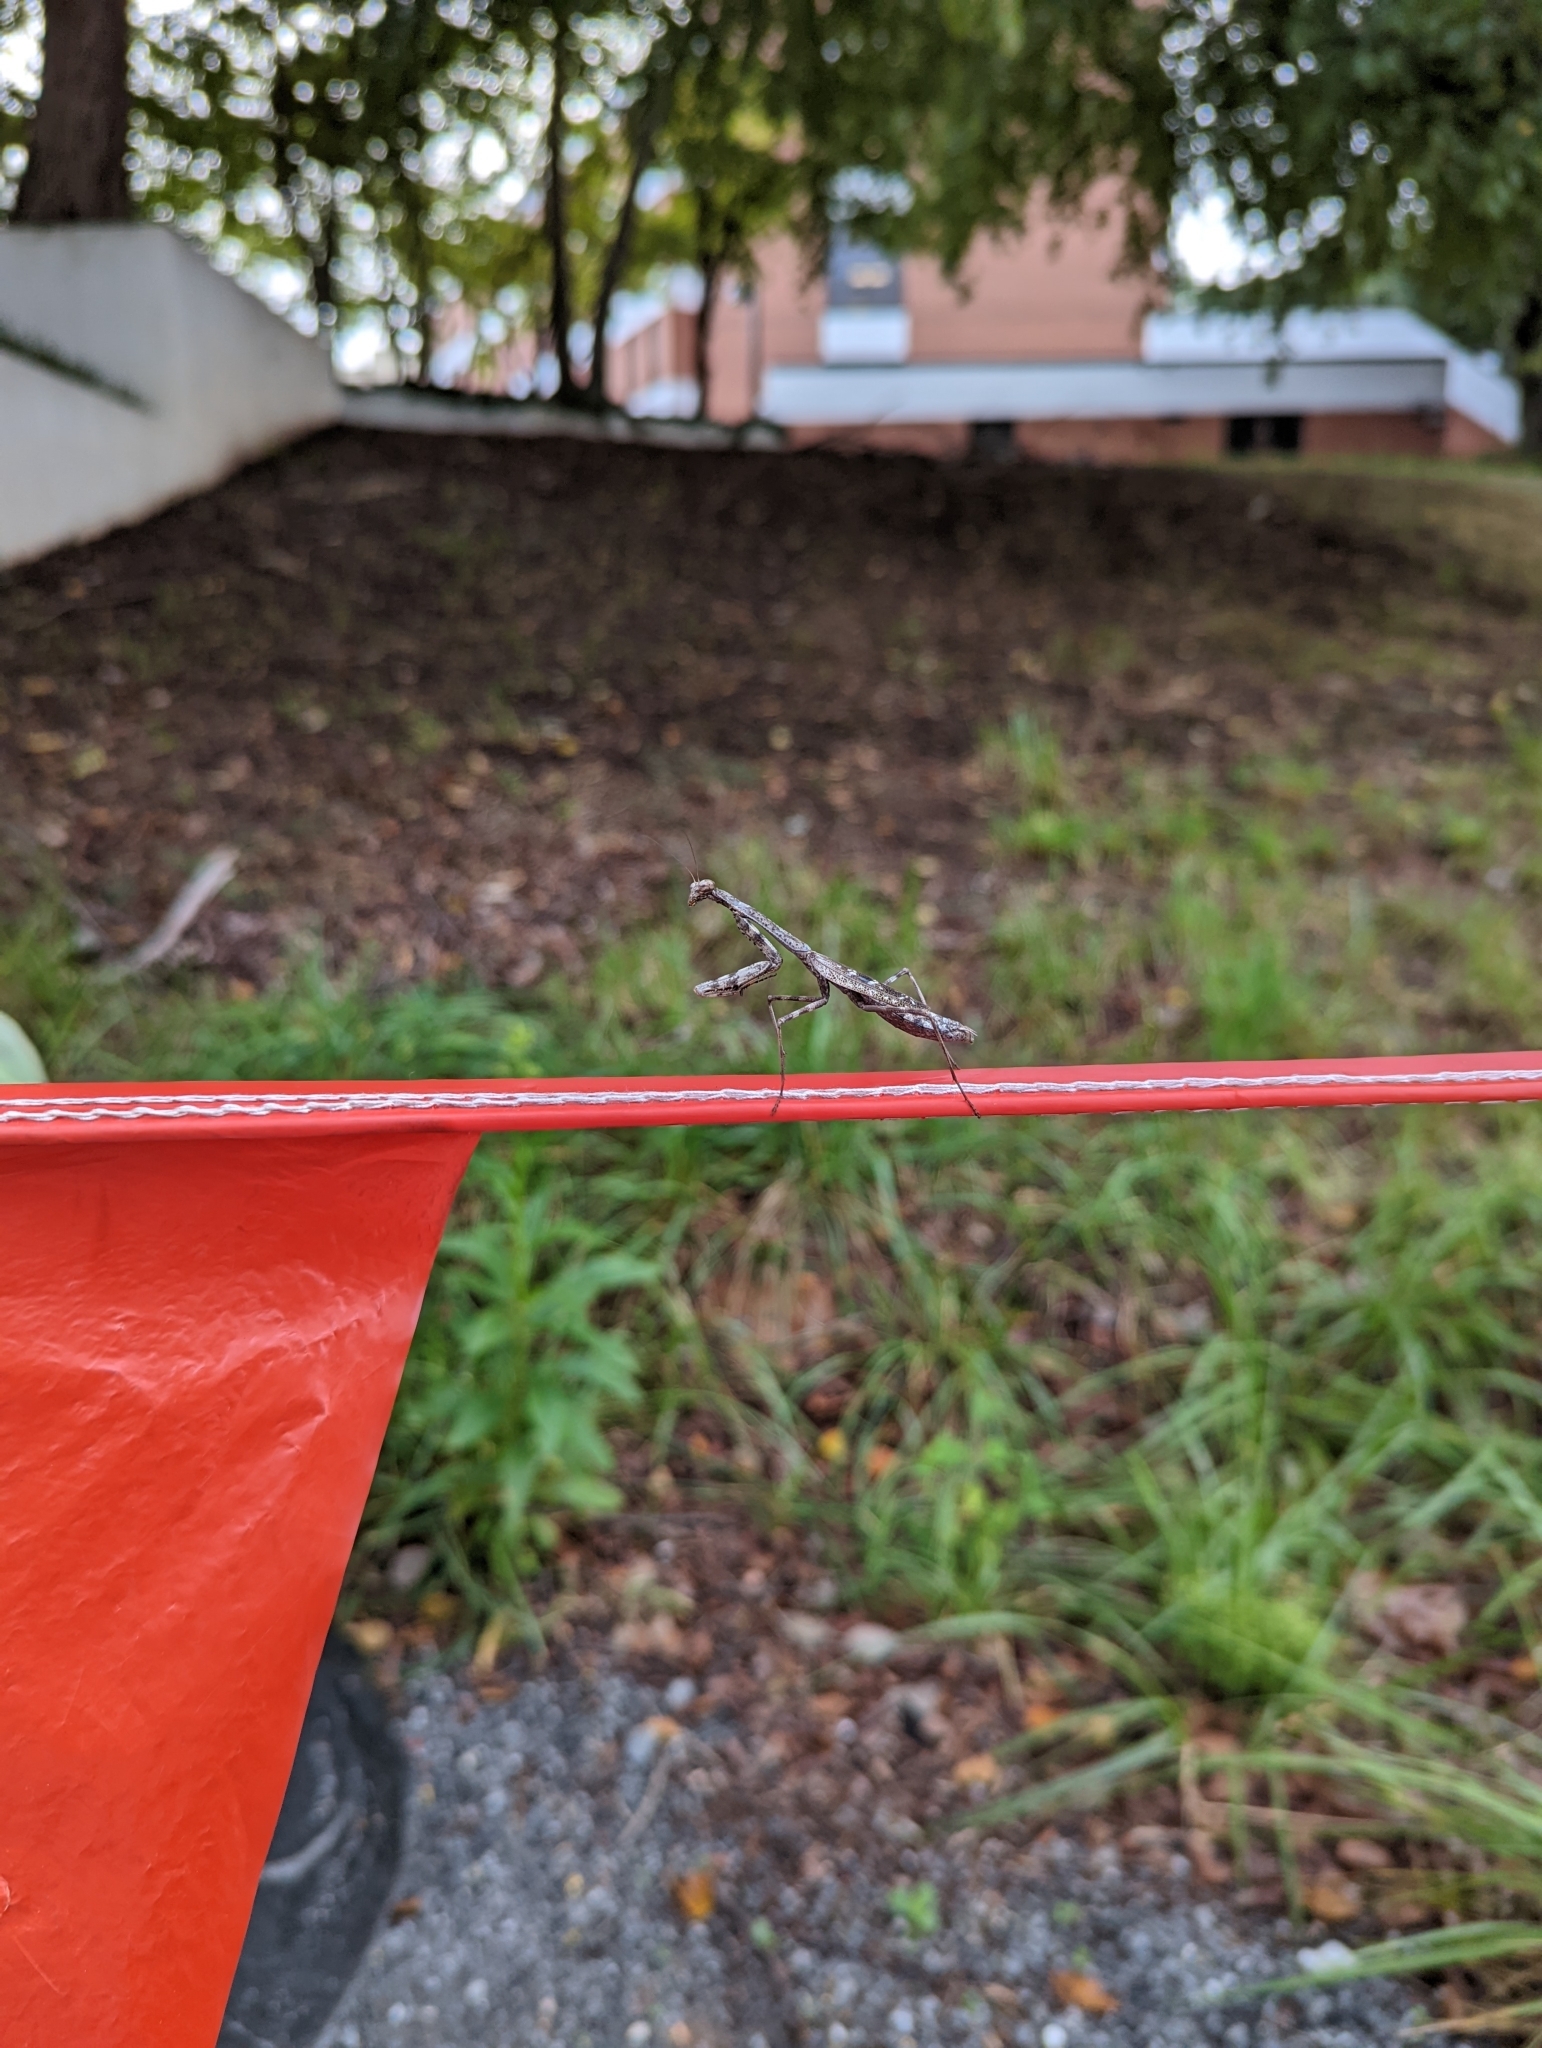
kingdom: Animalia
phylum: Arthropoda
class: Insecta
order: Mantodea
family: Mantidae
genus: Stagmomantis
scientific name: Stagmomantis carolina
